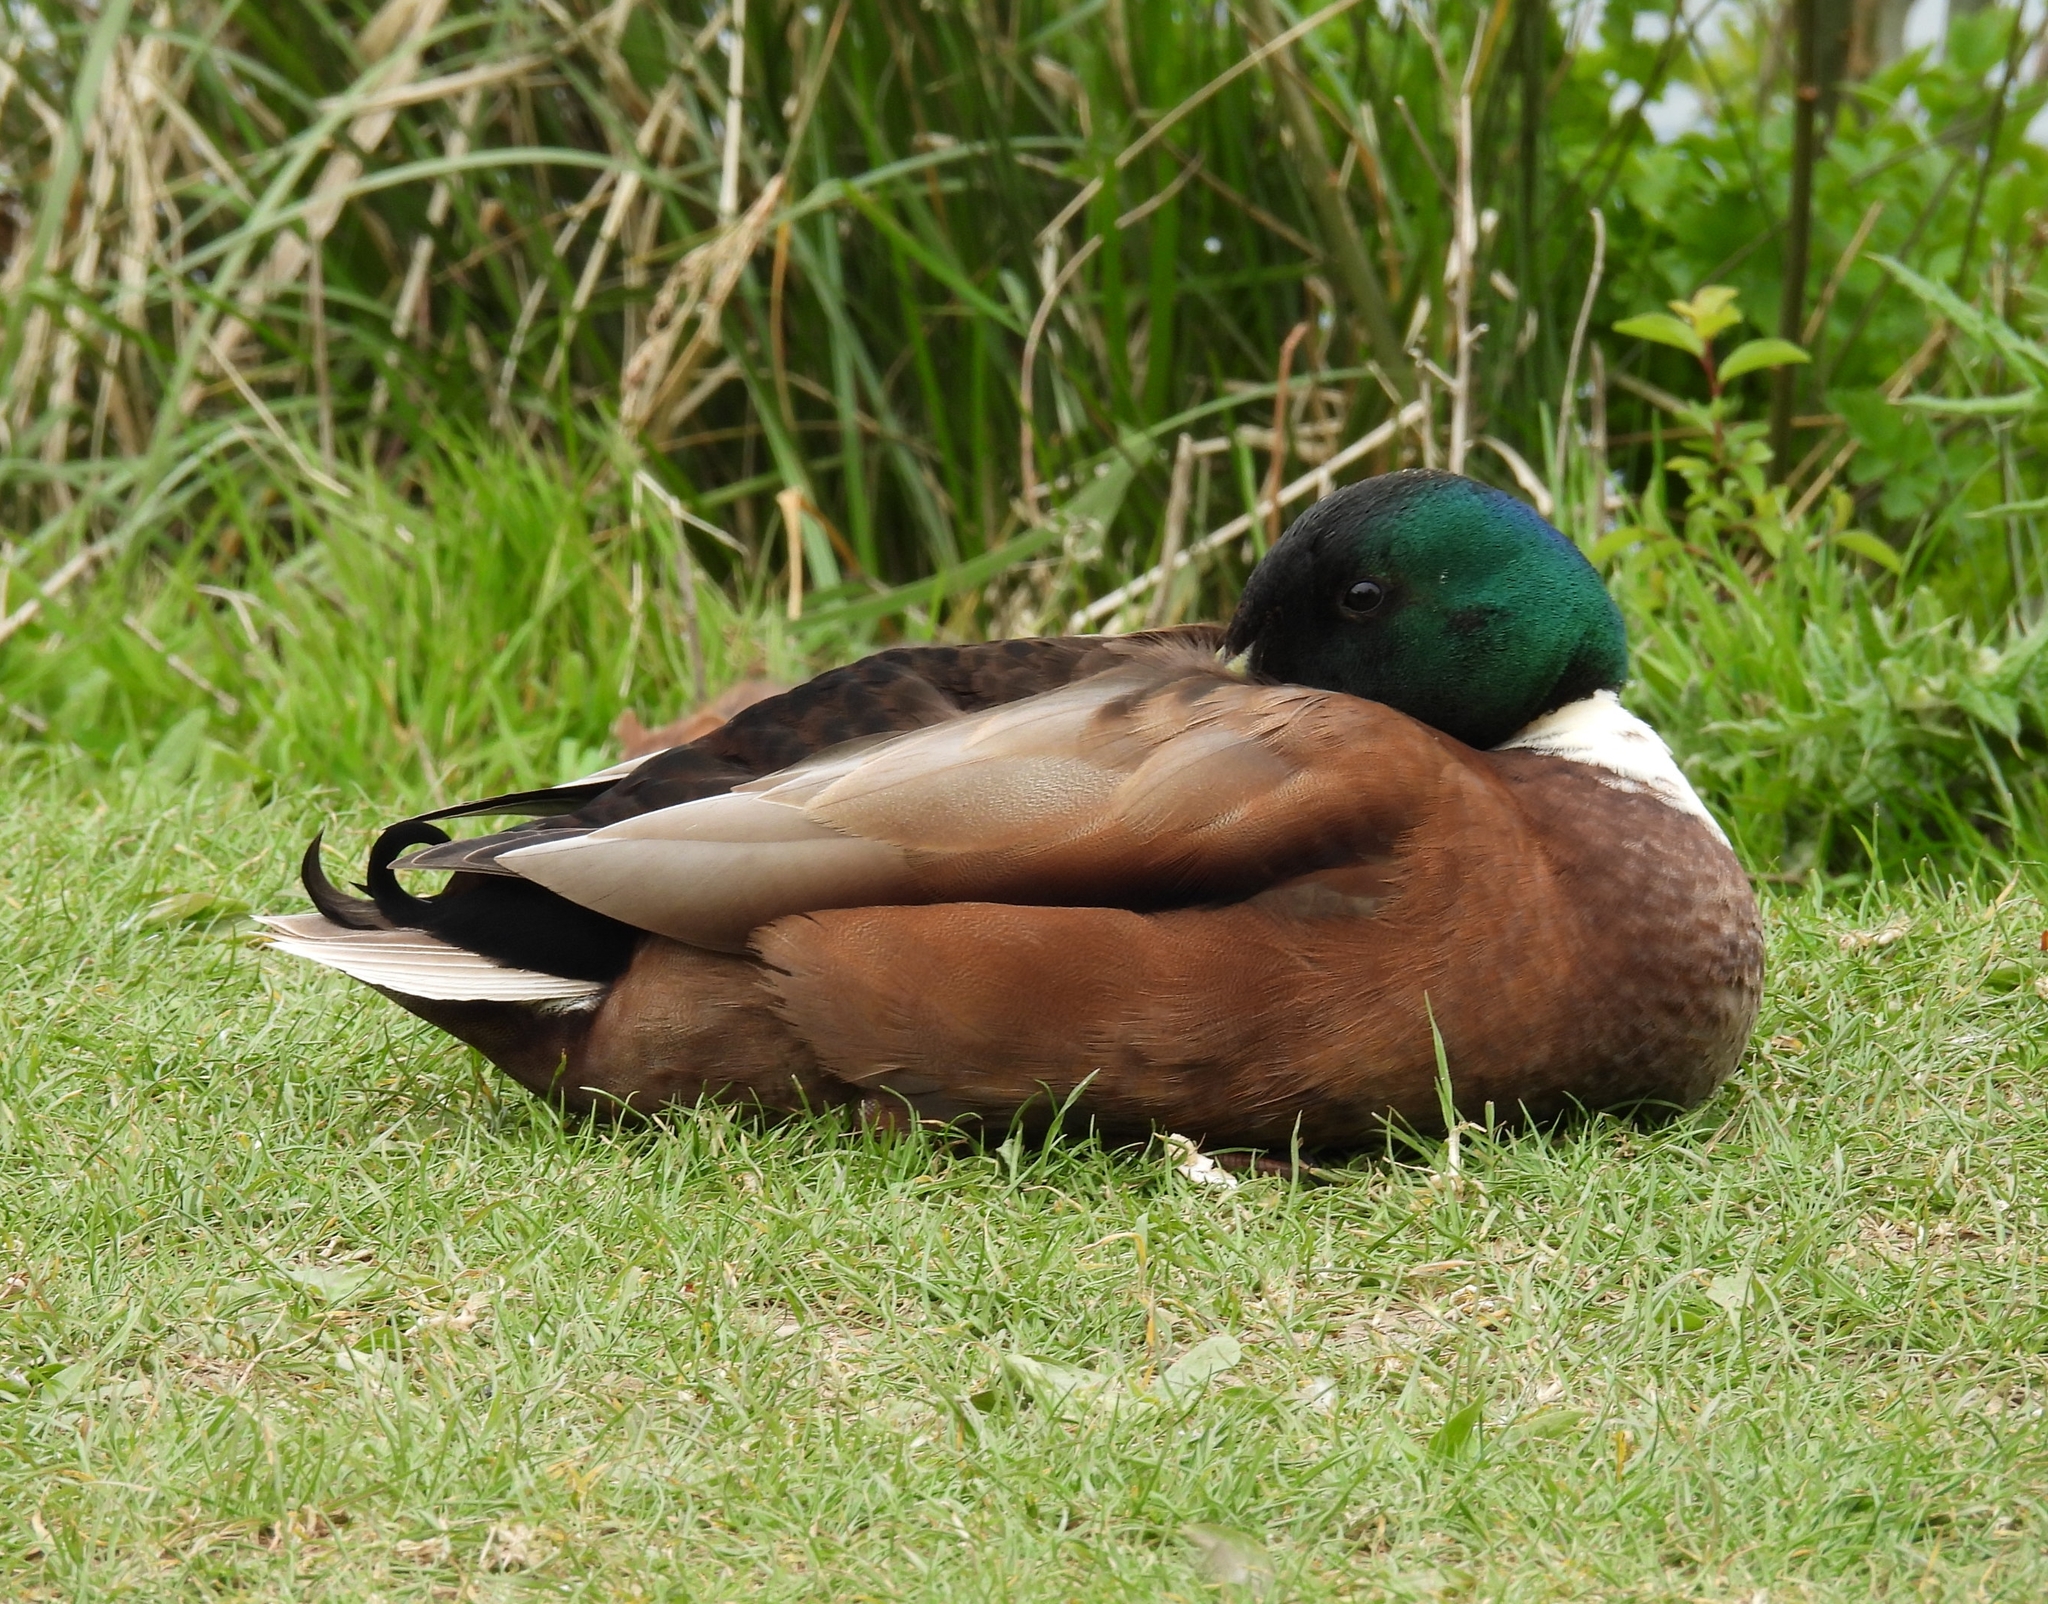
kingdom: Animalia
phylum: Chordata
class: Aves
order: Anseriformes
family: Anatidae
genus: Anas
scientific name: Anas platyrhynchos
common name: Mallard
